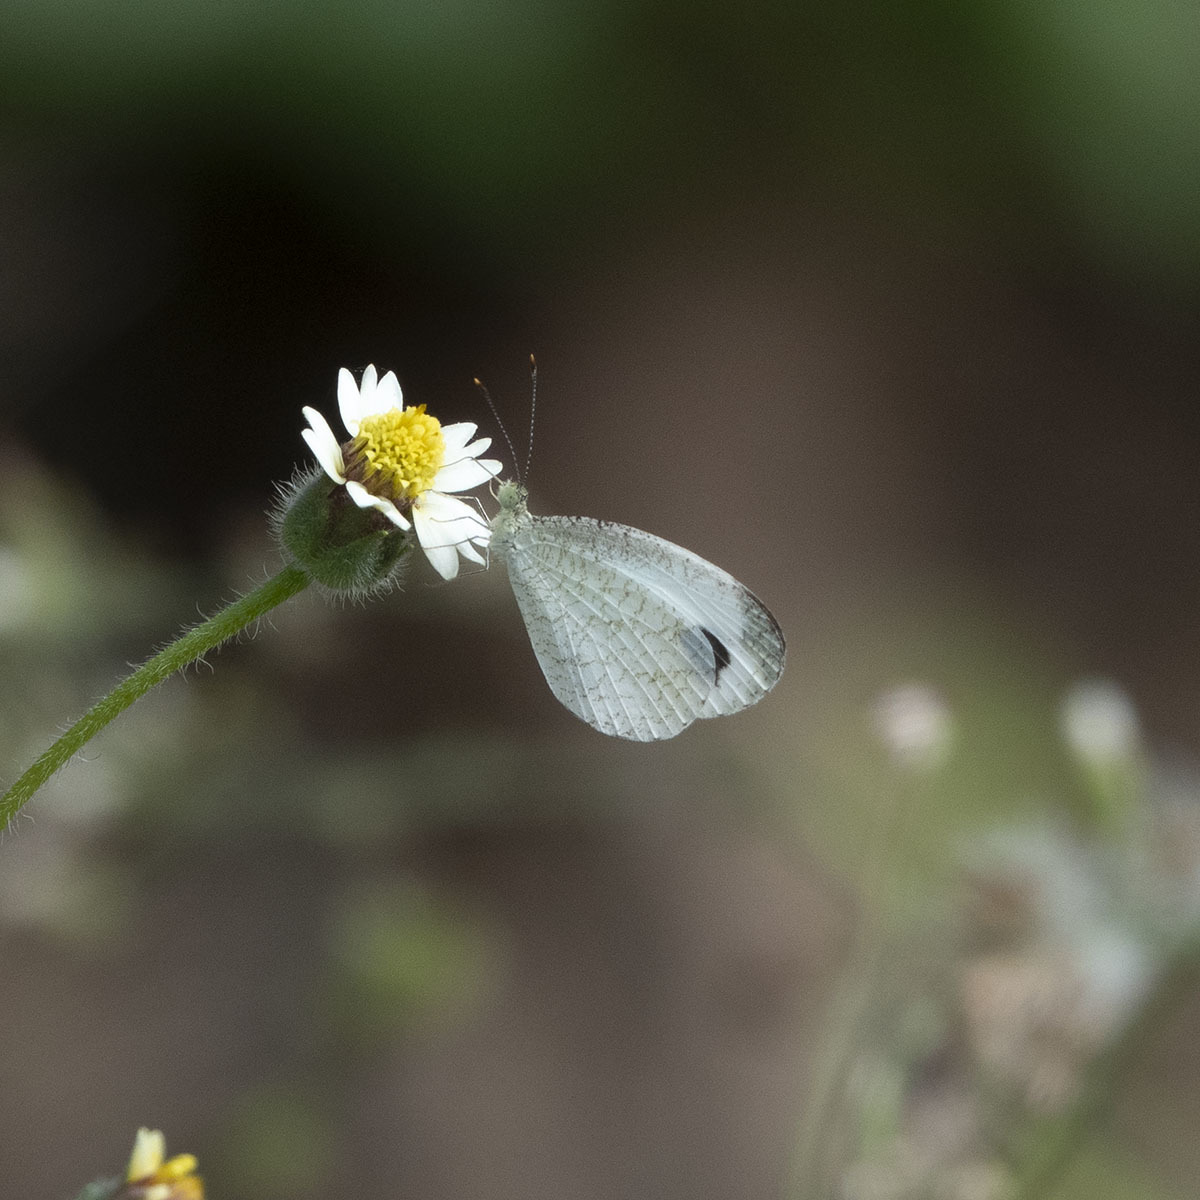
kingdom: Animalia
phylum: Arthropoda
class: Insecta
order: Lepidoptera
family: Pieridae
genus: Leptosia
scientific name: Leptosia nina
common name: Psyche
